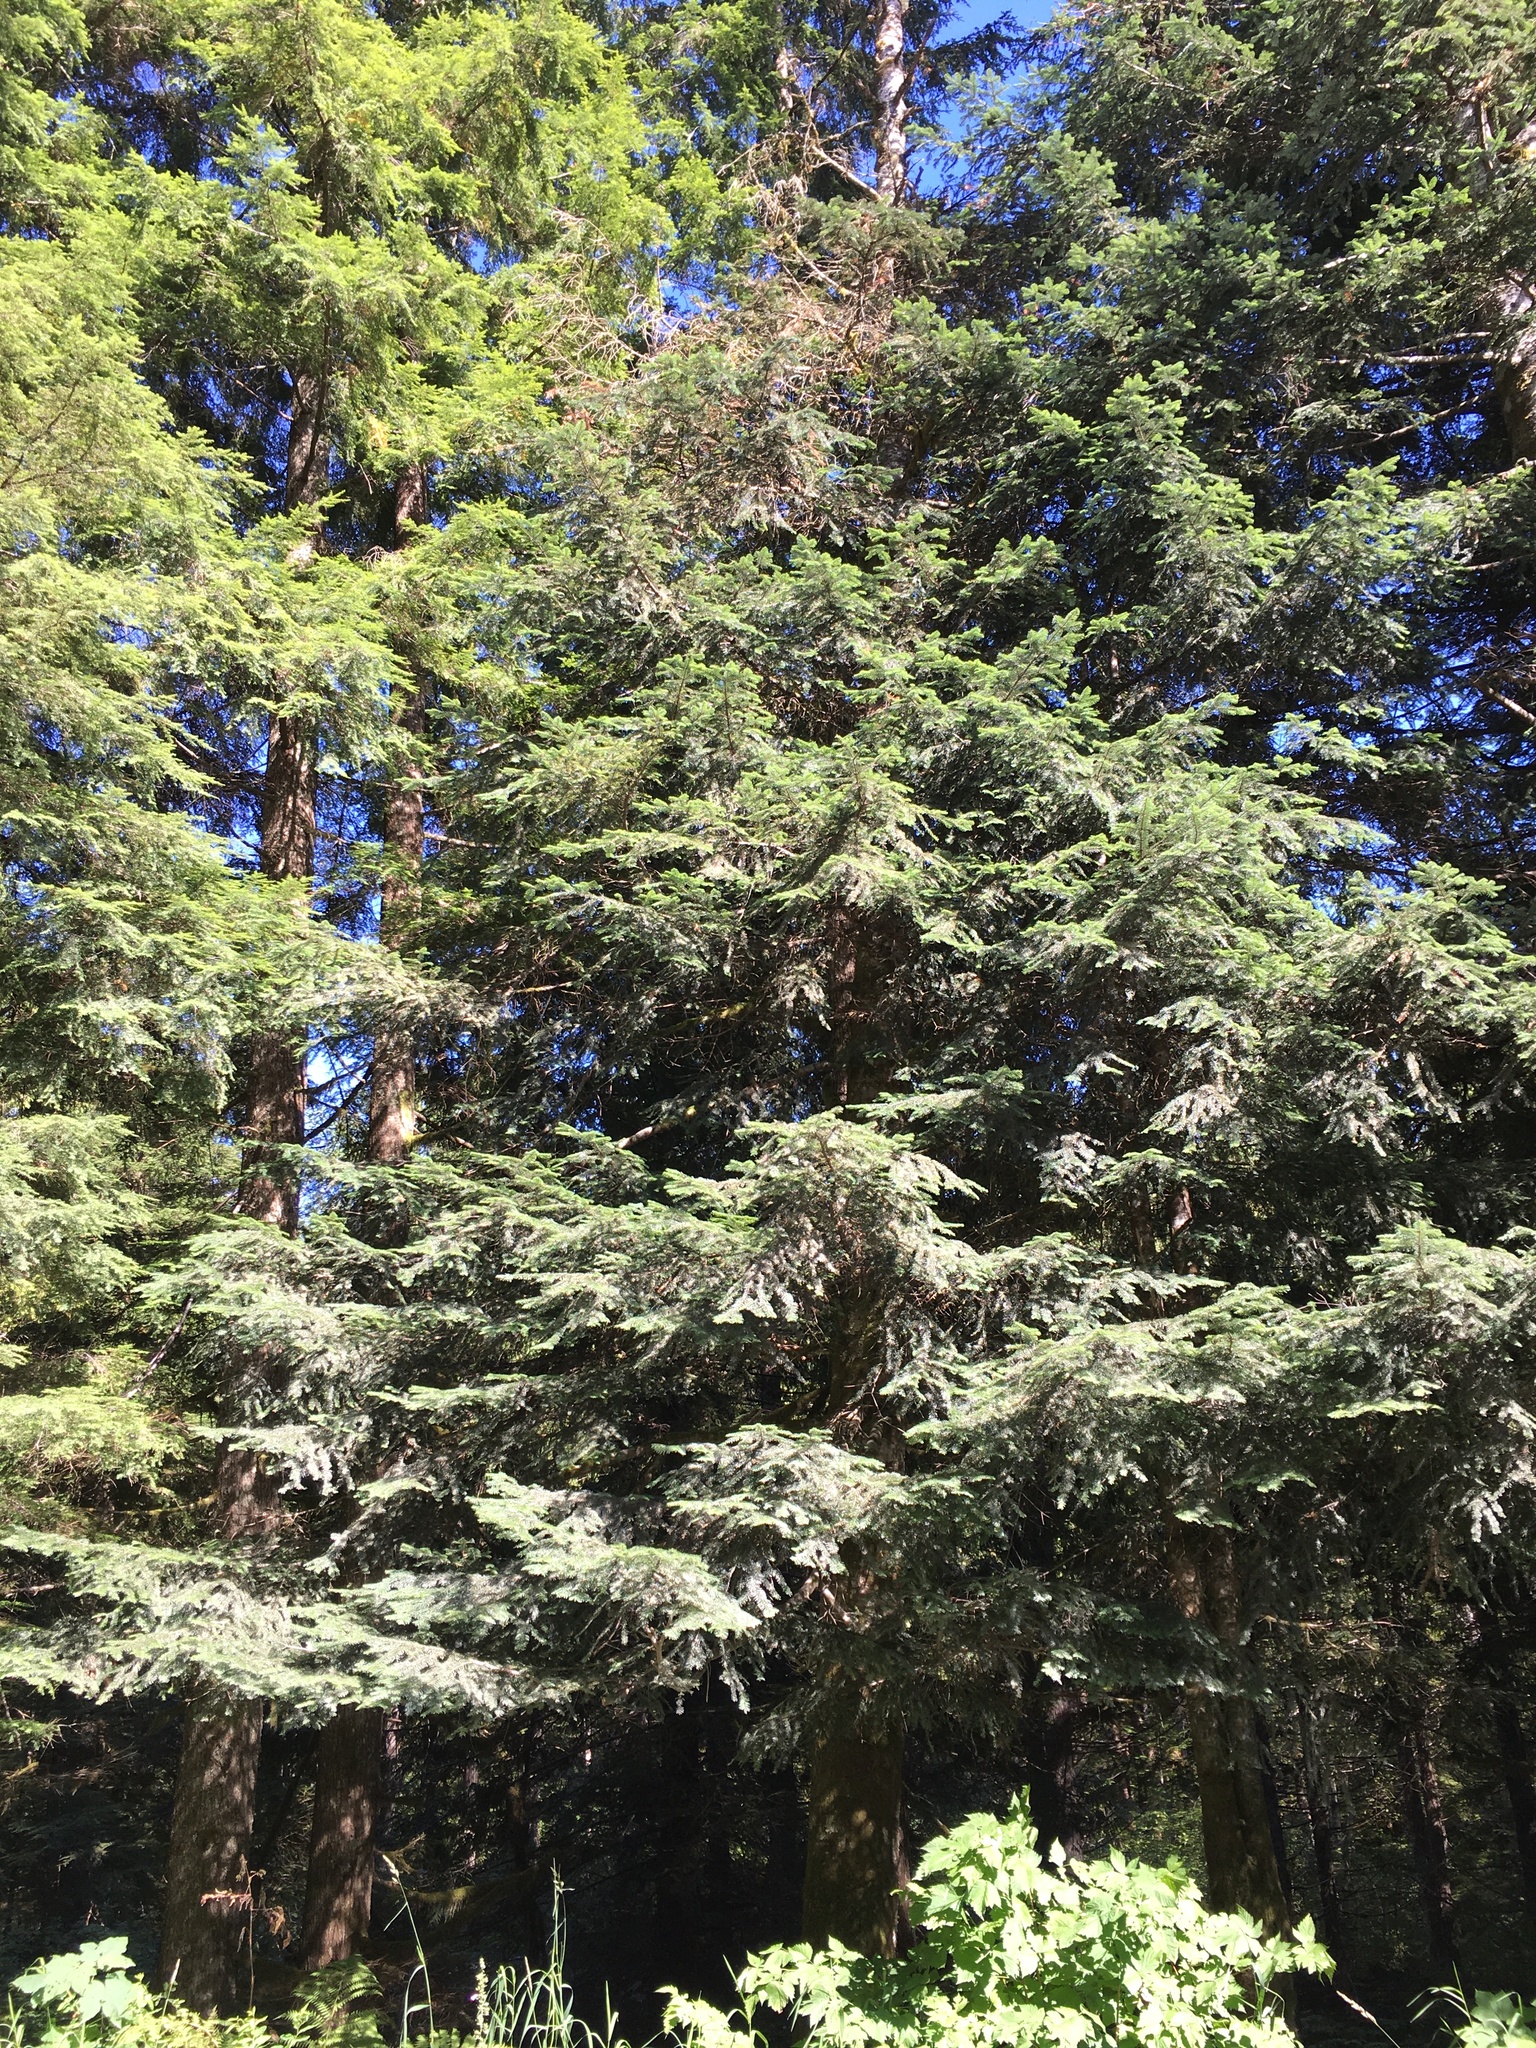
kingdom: Plantae
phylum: Tracheophyta
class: Pinopsida
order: Pinales
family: Pinaceae
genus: Abies
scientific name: Abies amabilis
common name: Pacific silver fir
